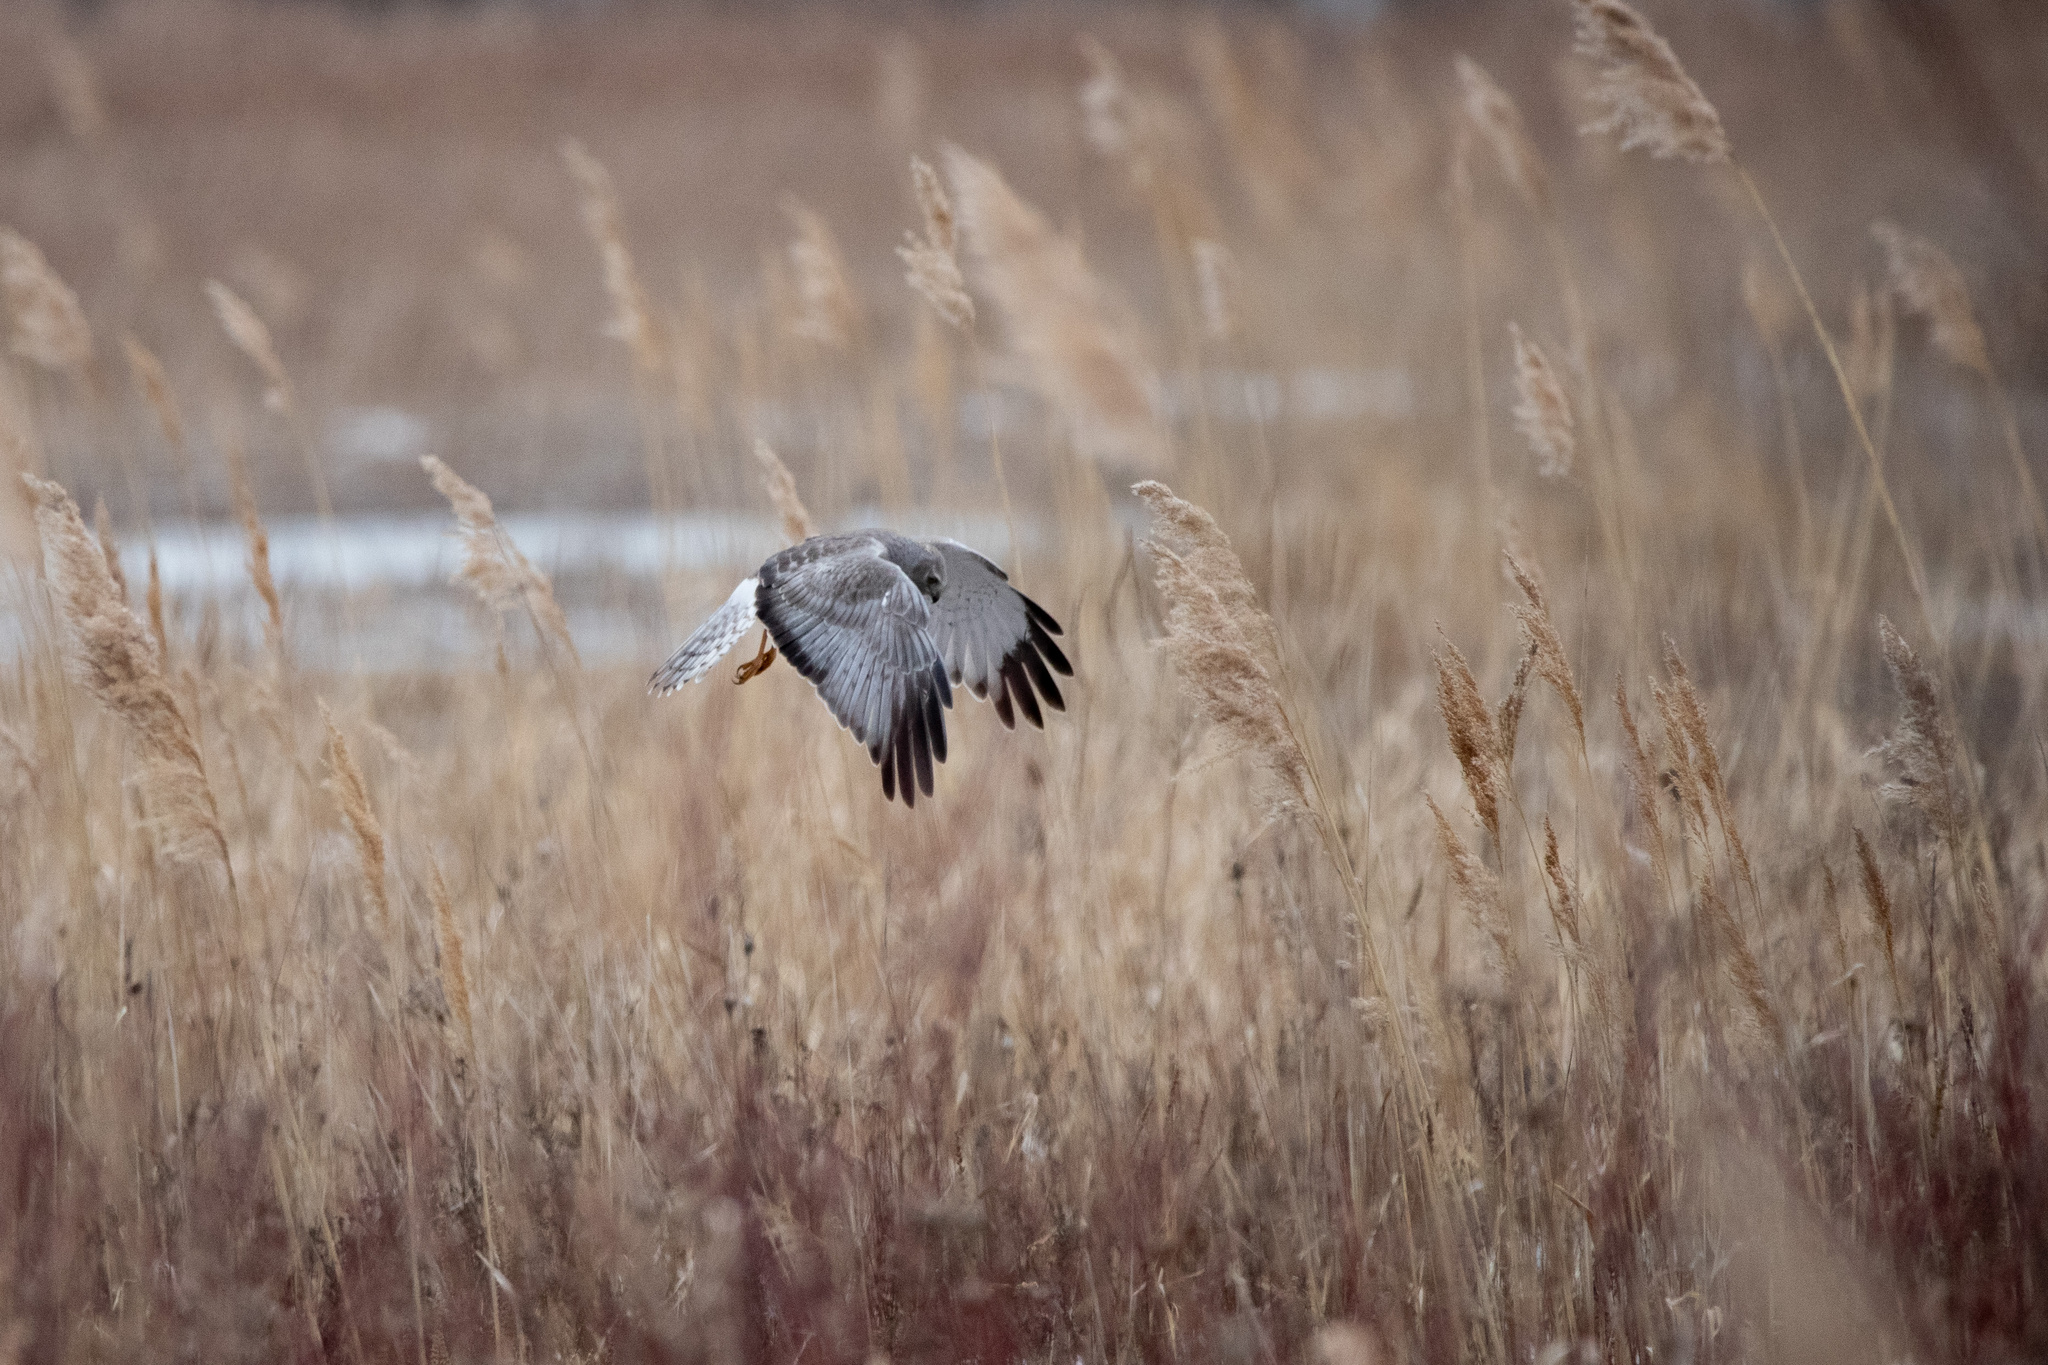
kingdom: Animalia
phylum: Chordata
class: Aves
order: Accipitriformes
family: Accipitridae
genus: Circus
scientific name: Circus cyaneus
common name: Hen harrier
